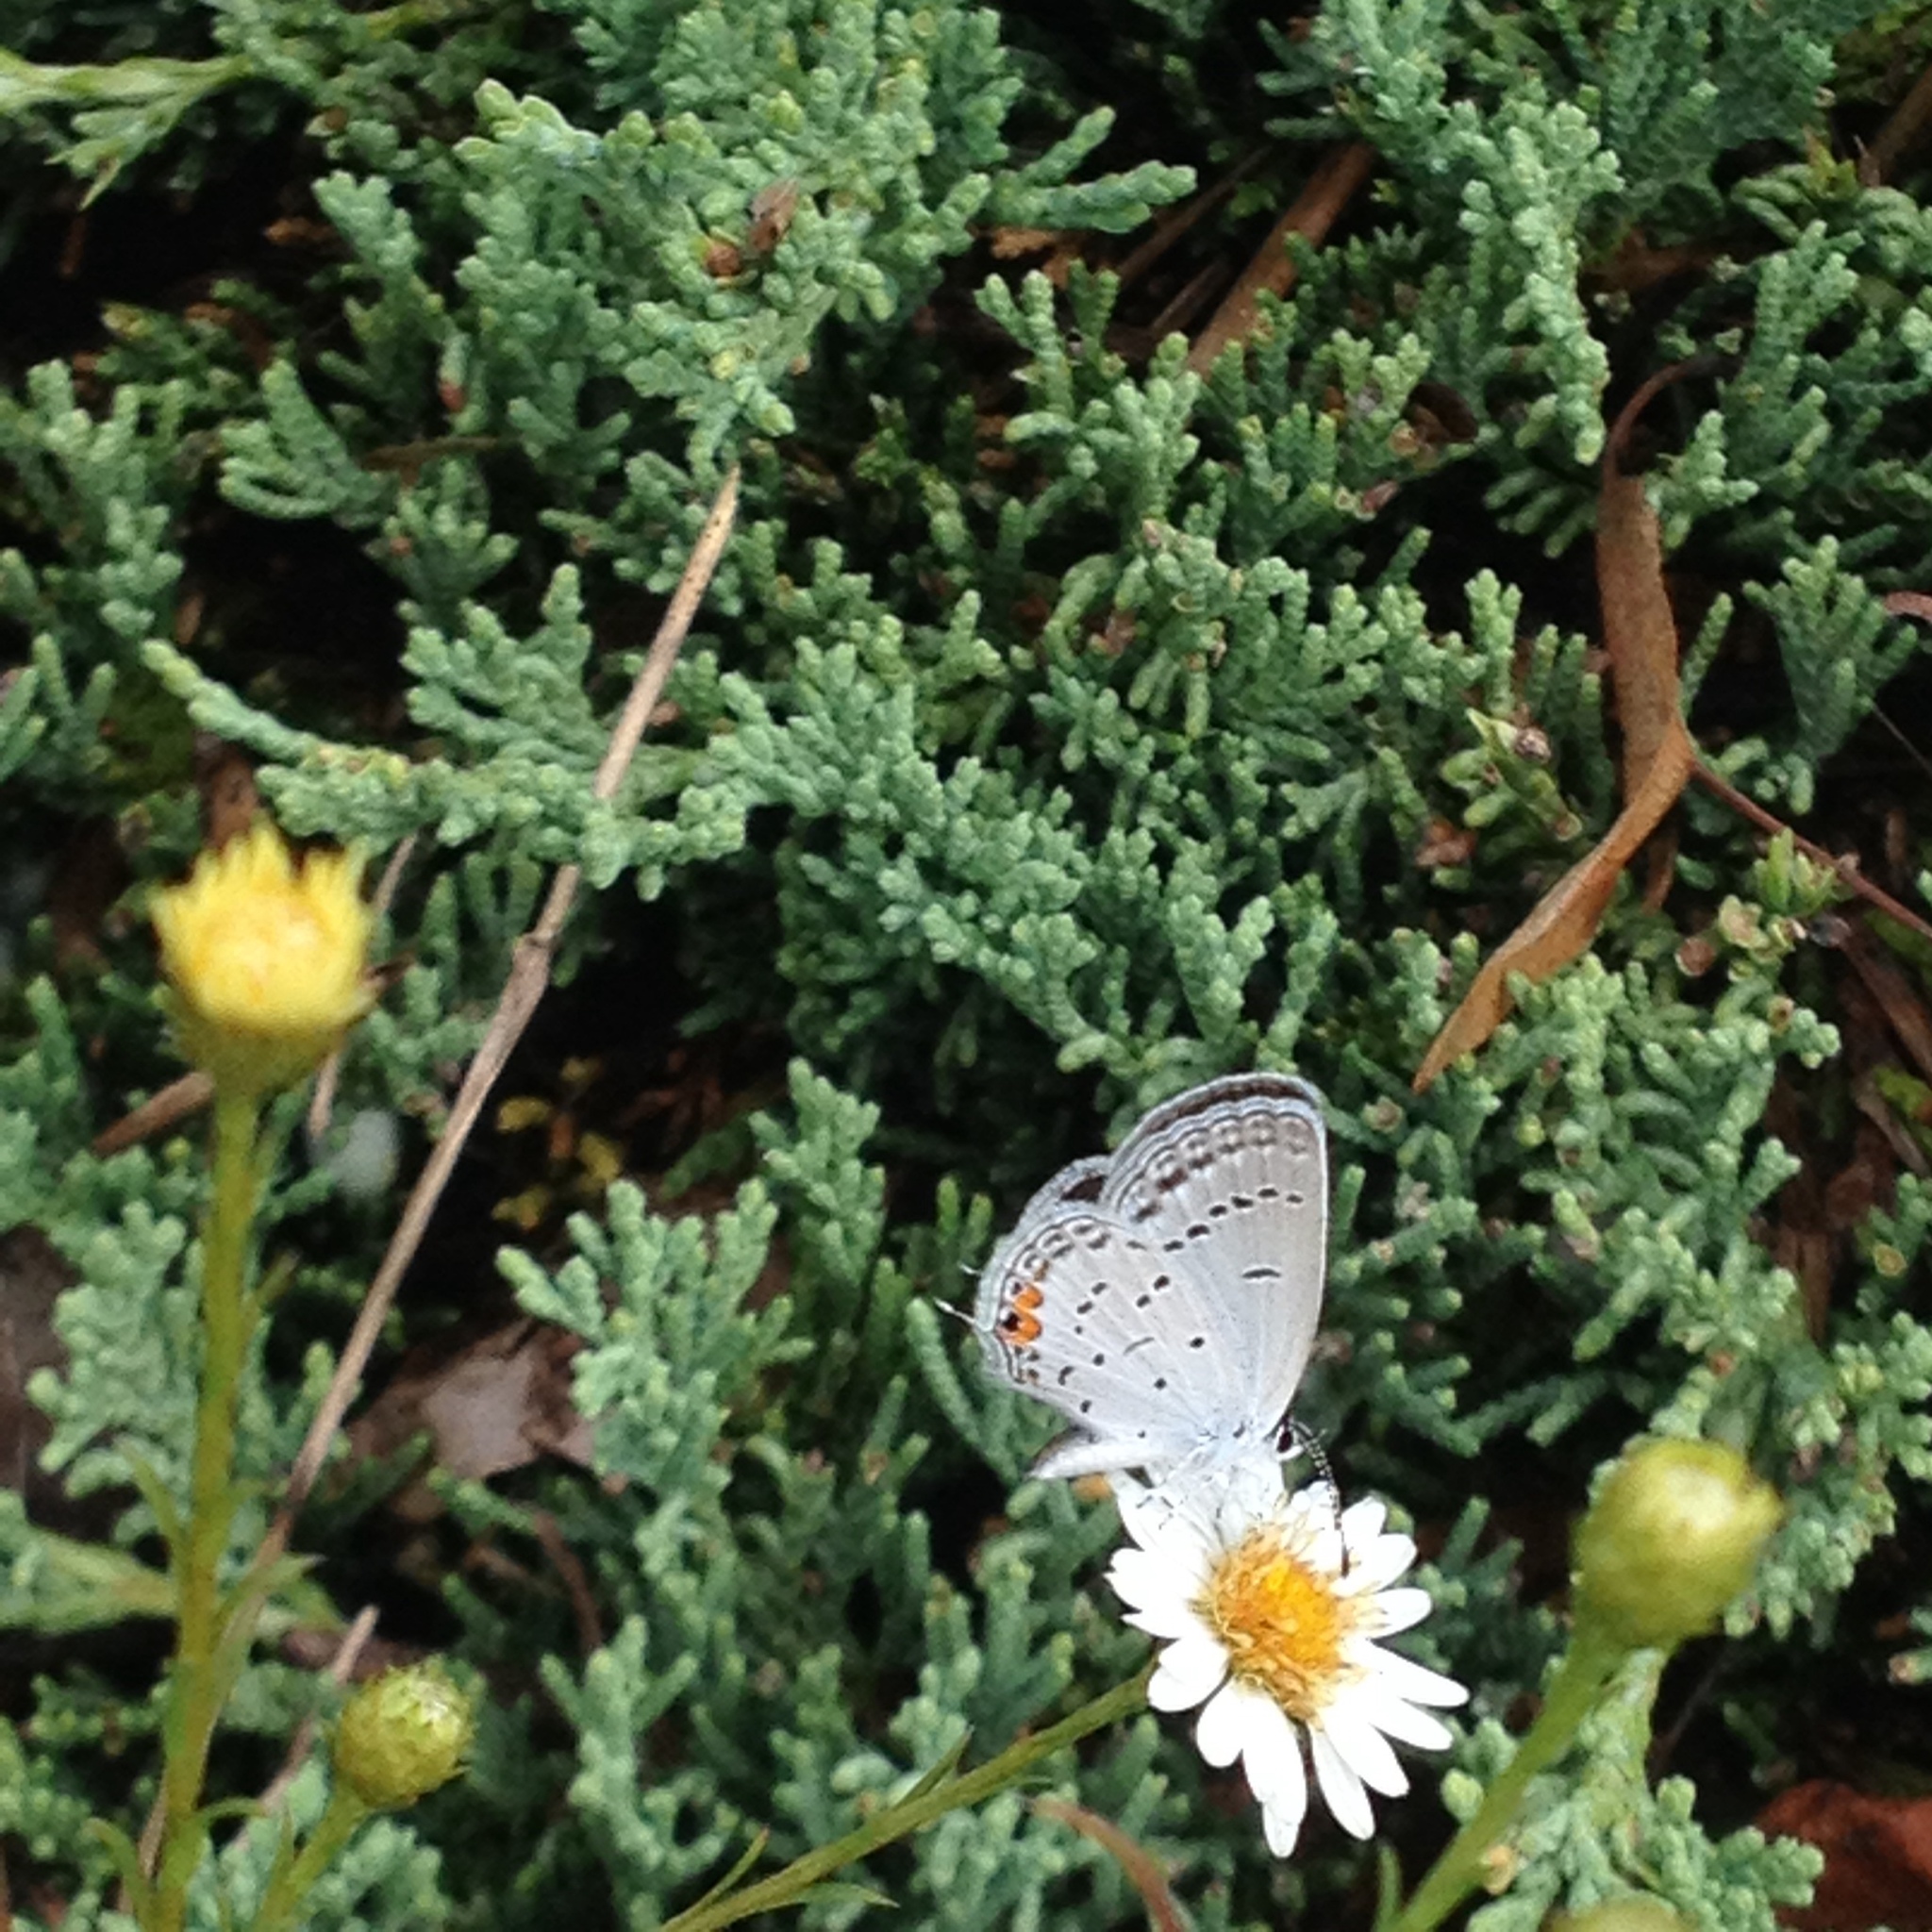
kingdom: Animalia
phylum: Arthropoda
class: Insecta
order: Lepidoptera
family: Lycaenidae
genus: Elkalyce
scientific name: Elkalyce comyntas
